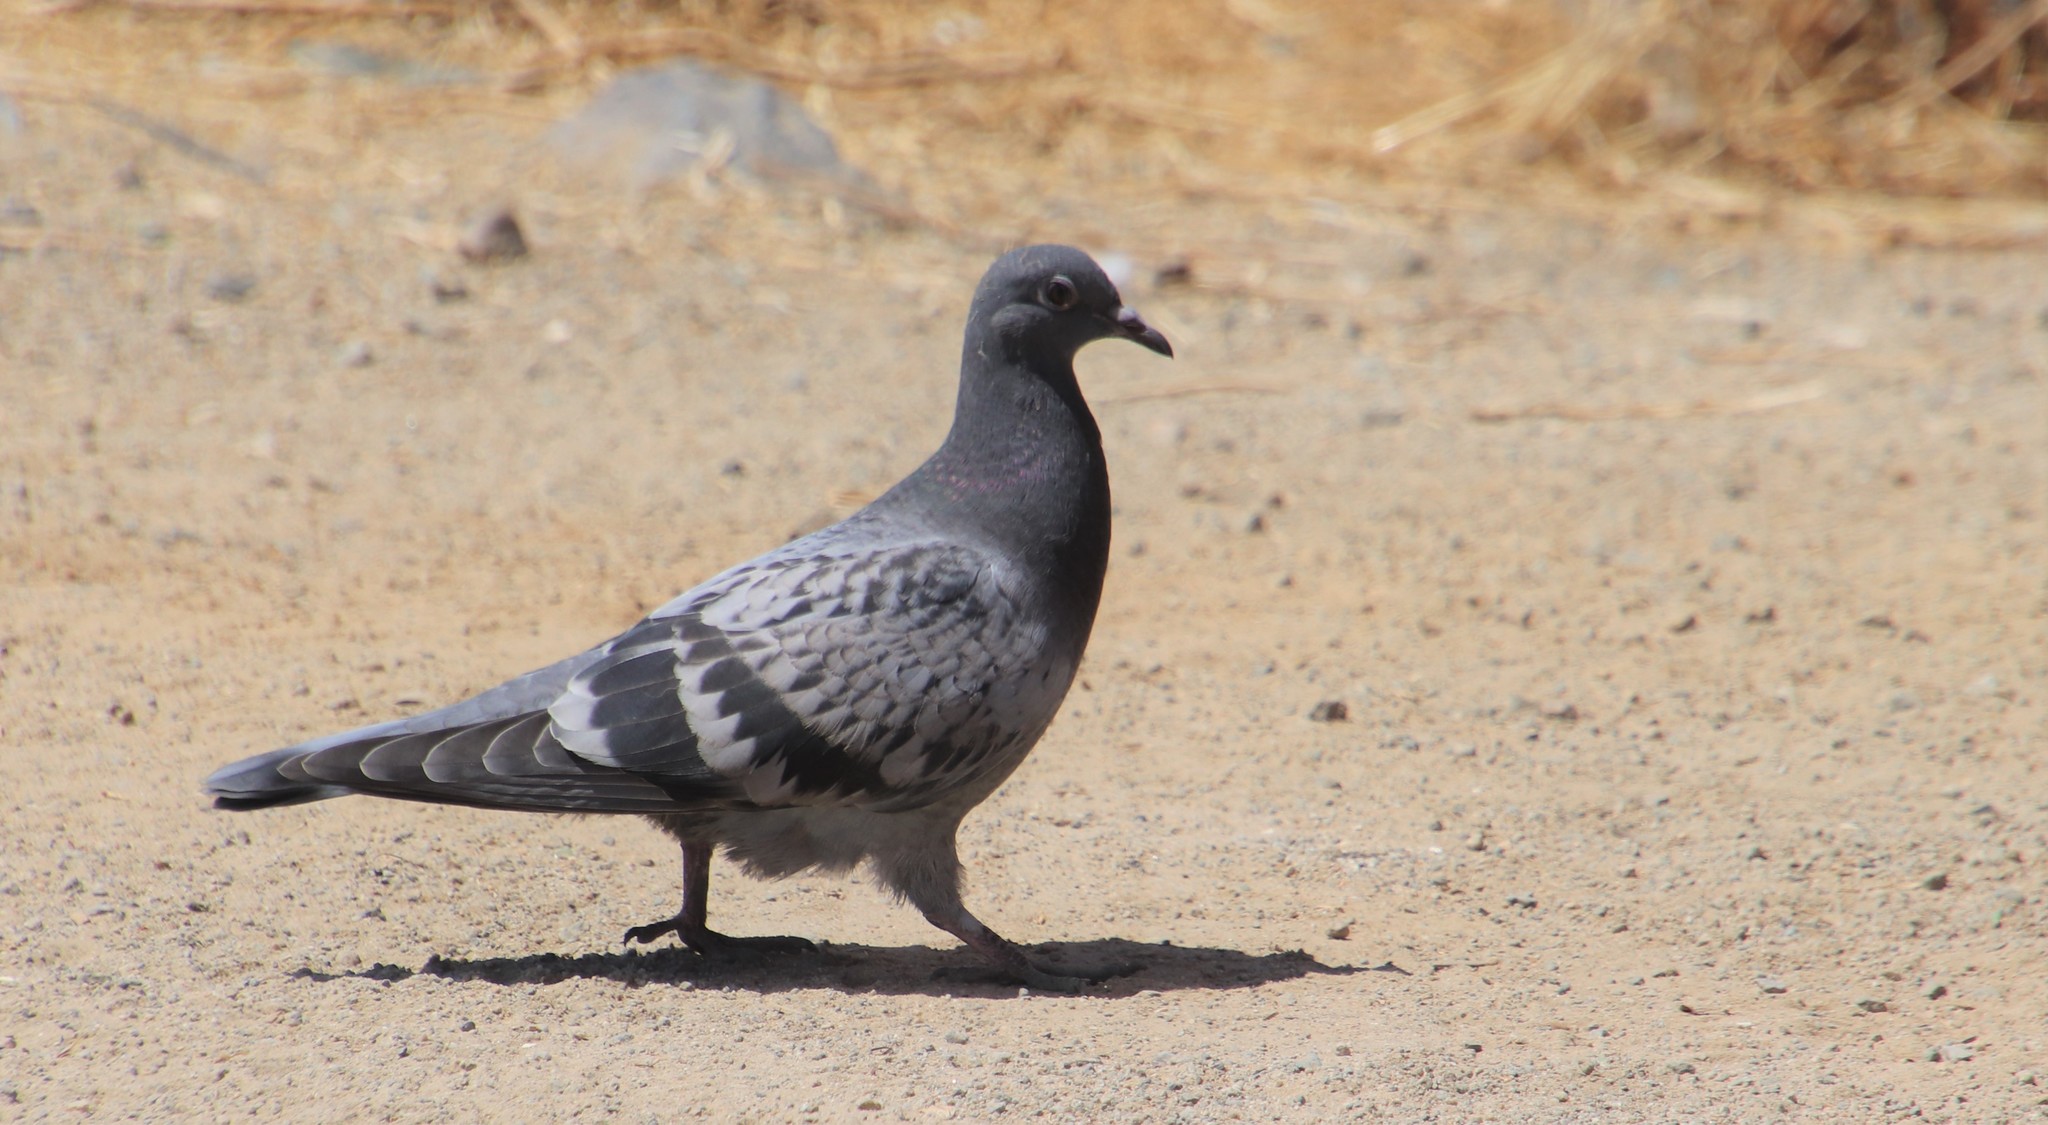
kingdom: Animalia
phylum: Chordata
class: Aves
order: Columbiformes
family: Columbidae
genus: Columba
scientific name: Columba livia
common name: Rock pigeon
